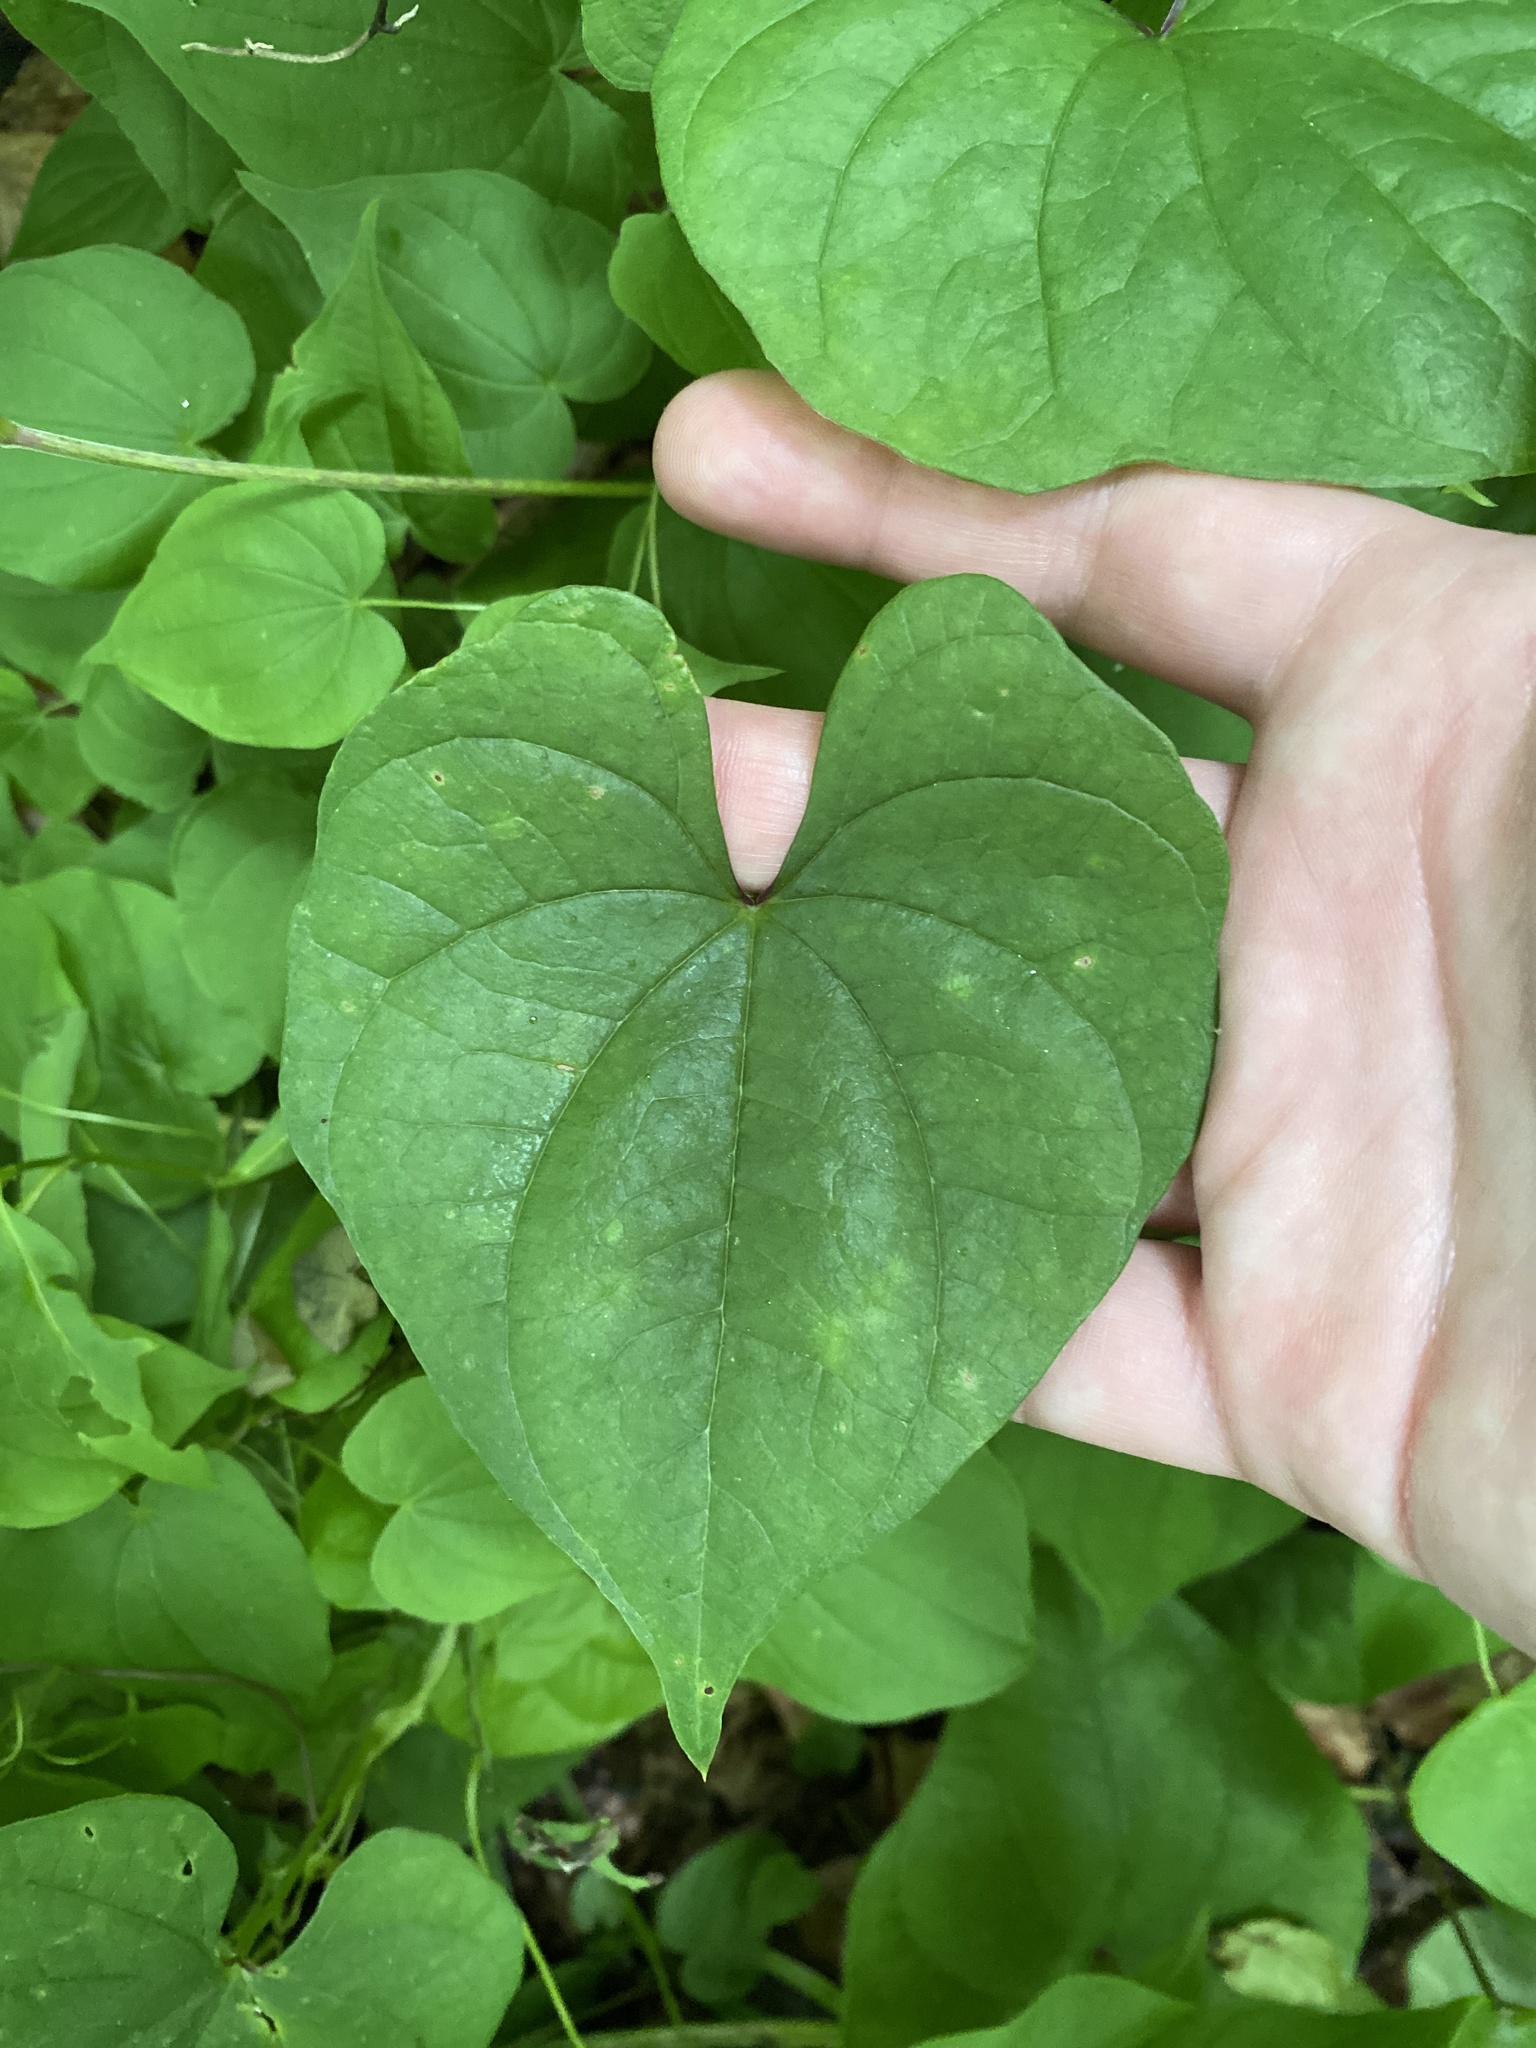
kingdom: Plantae
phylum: Tracheophyta
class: Liliopsida
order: Dioscoreales
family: Dioscoreaceae
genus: Dioscorea
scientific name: Dioscorea polystachya
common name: Chinese yam
